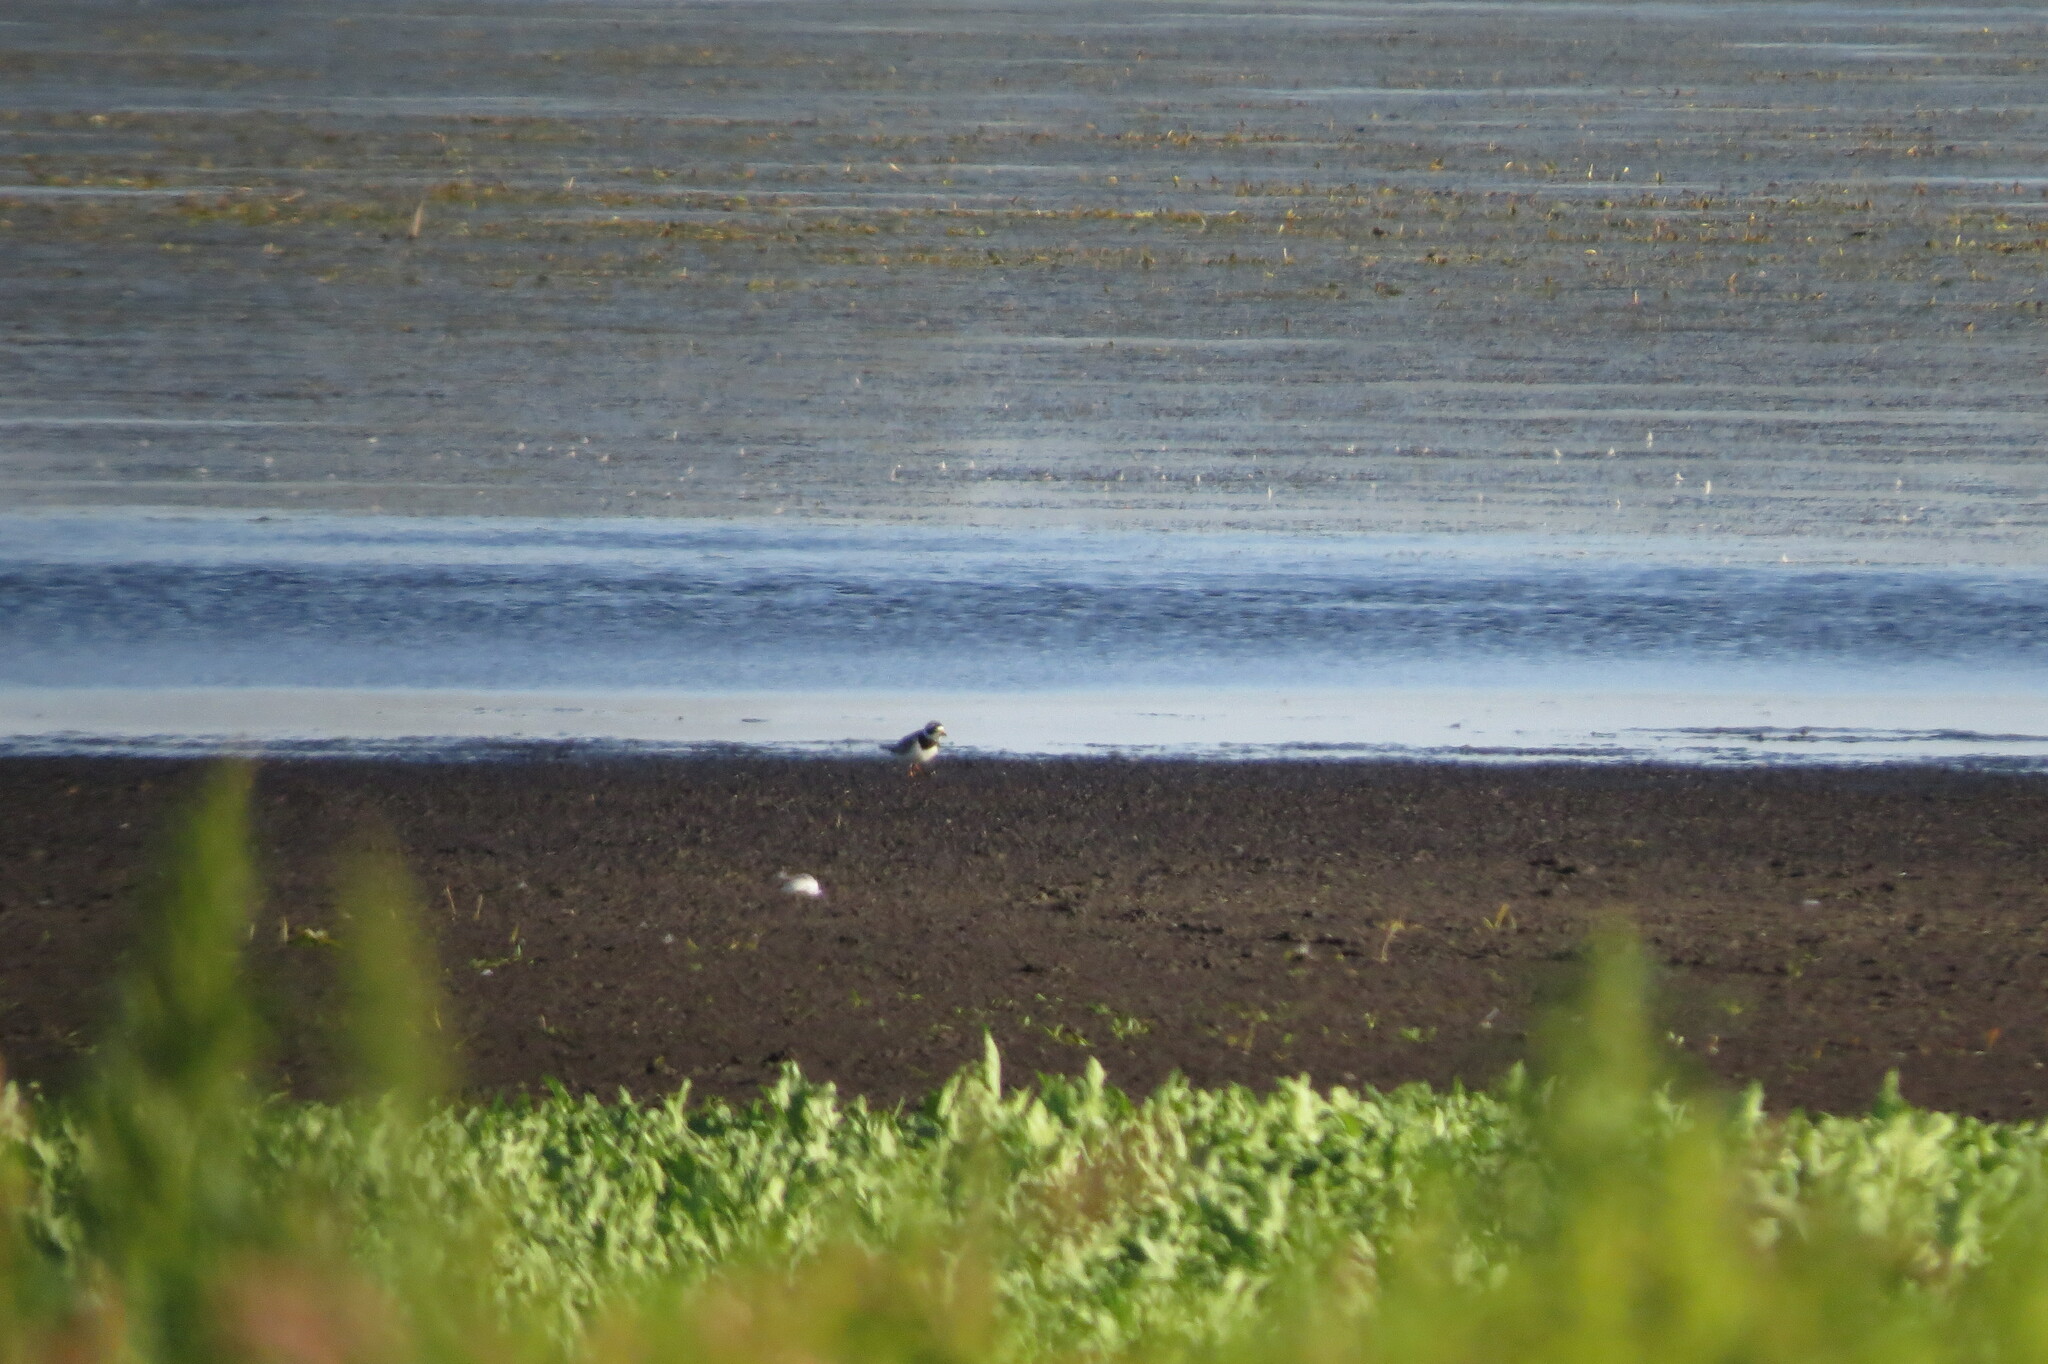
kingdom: Animalia
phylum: Chordata
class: Aves
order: Charadriiformes
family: Charadriidae
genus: Charadrius
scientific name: Charadrius hiaticula
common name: Common ringed plover
